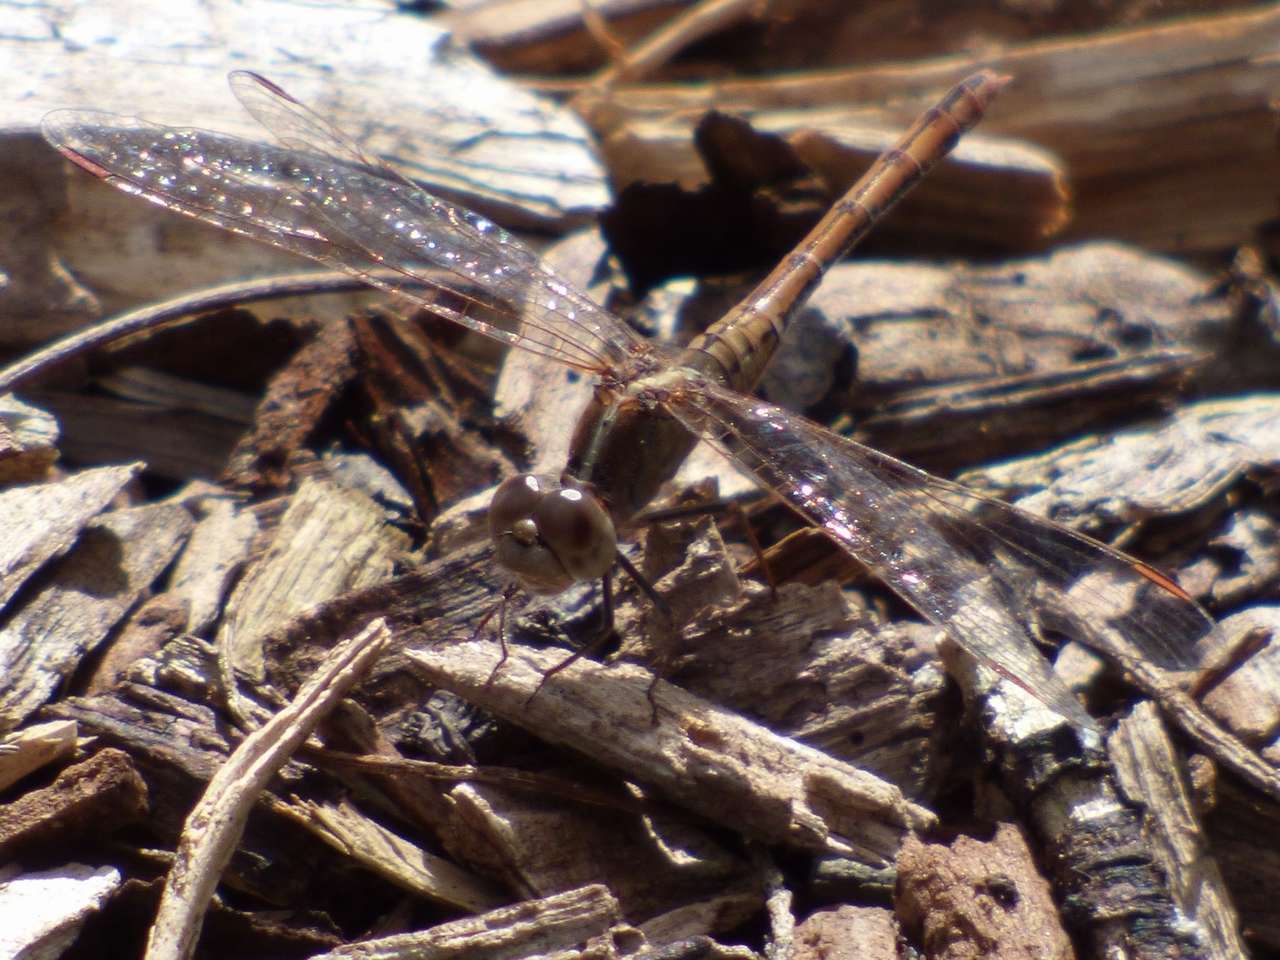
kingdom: Animalia
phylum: Arthropoda
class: Insecta
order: Odonata
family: Libellulidae
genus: Diplacodes
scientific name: Diplacodes bipunctata
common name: Red percher dragonfly
